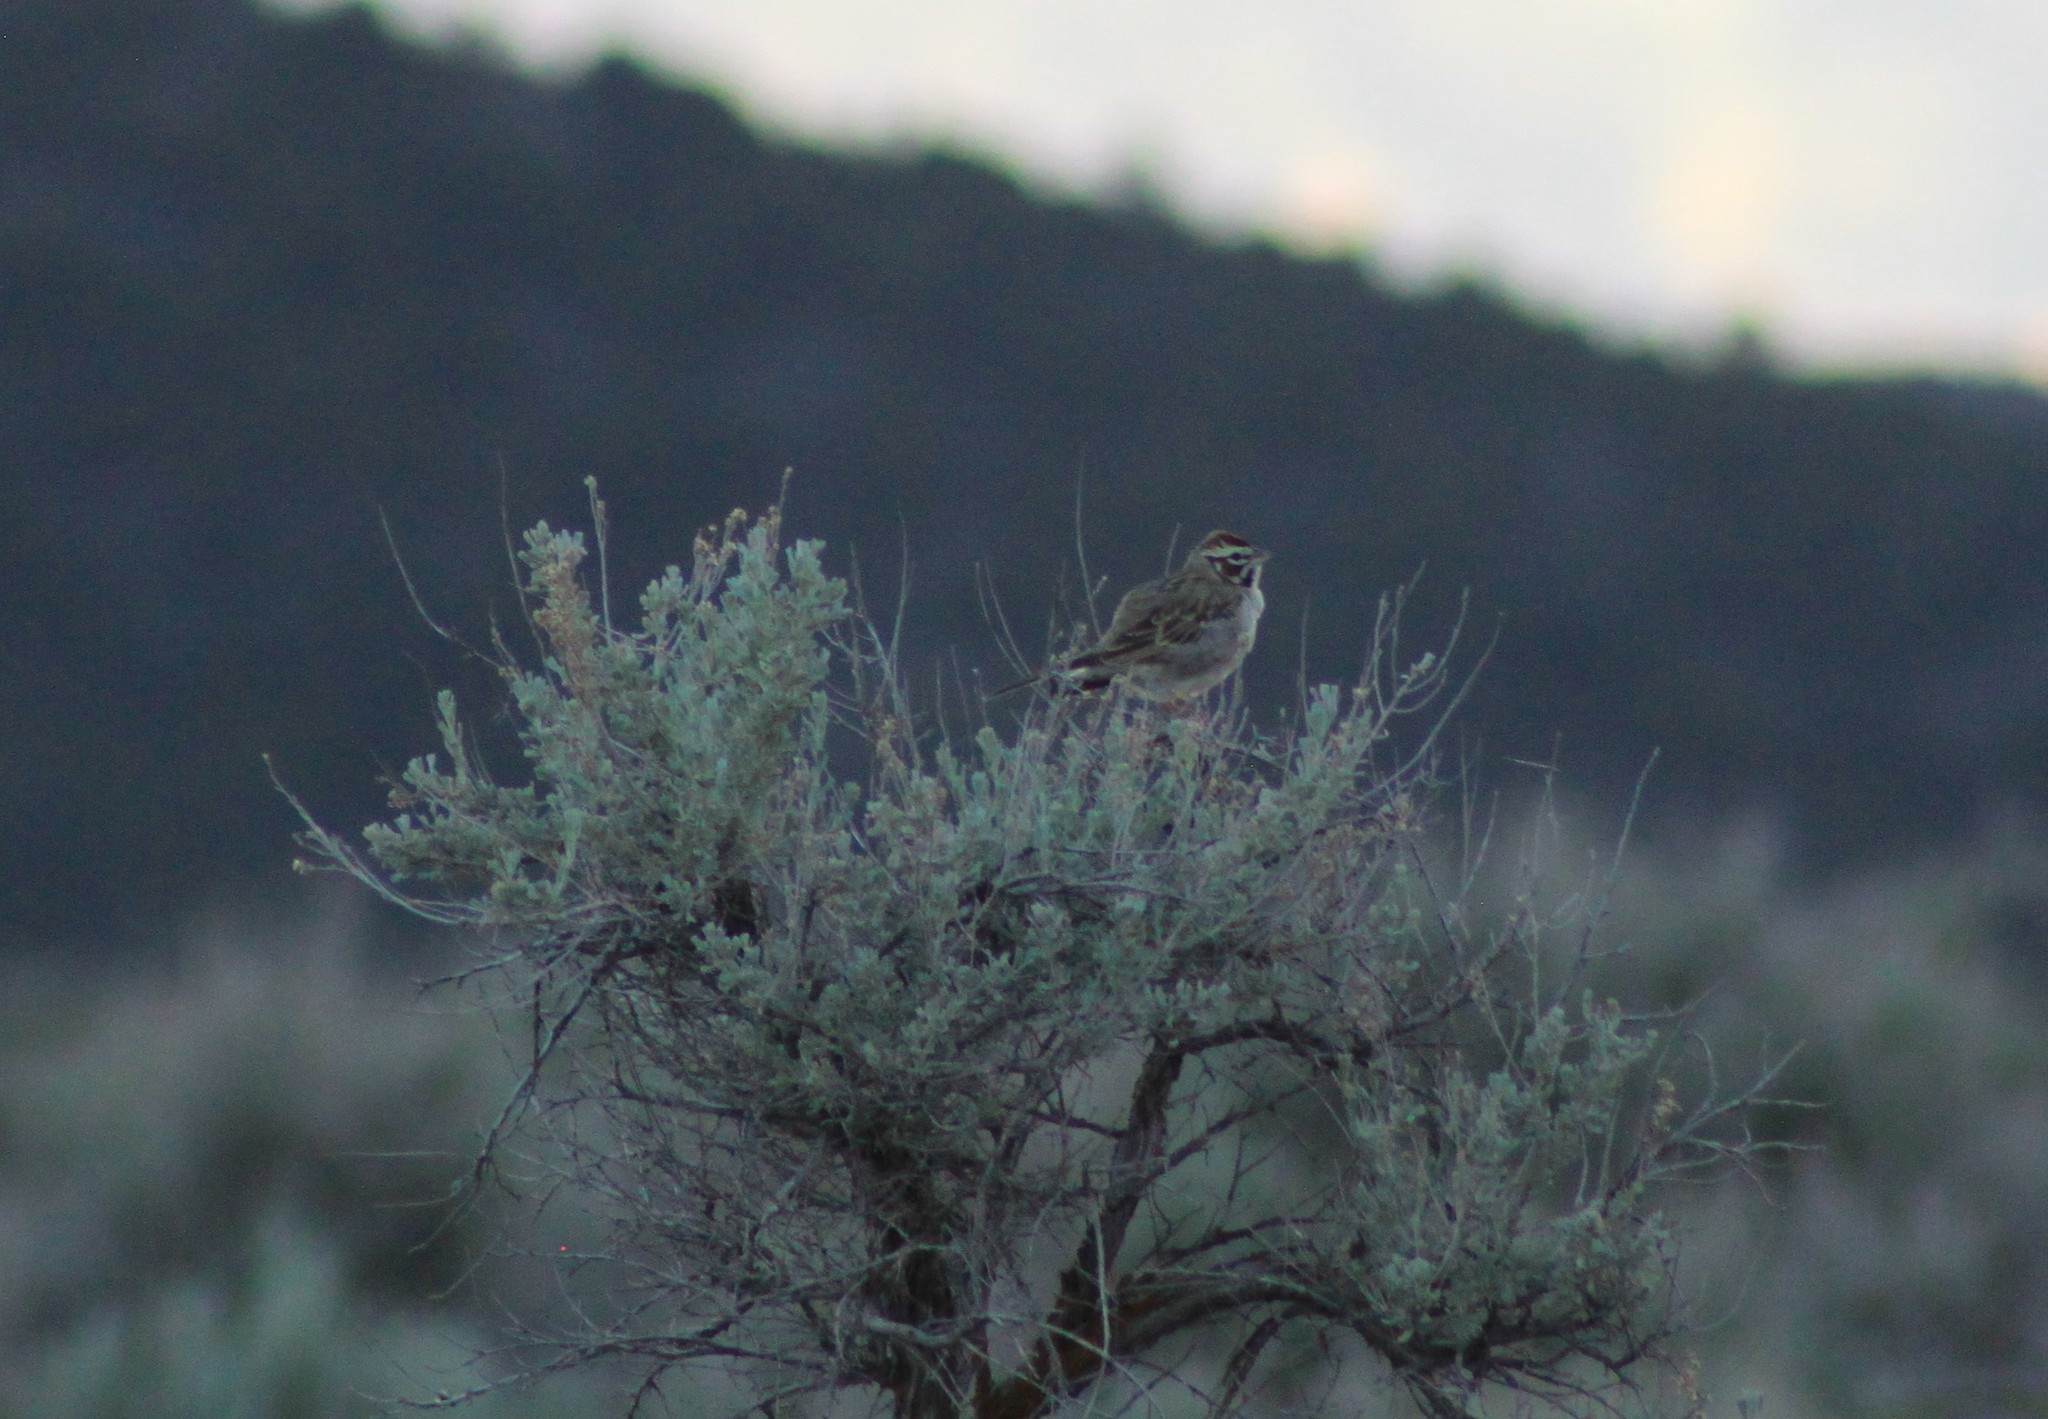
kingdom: Animalia
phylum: Chordata
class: Aves
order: Passeriformes
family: Passerellidae
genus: Chondestes
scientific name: Chondestes grammacus
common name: Lark sparrow
